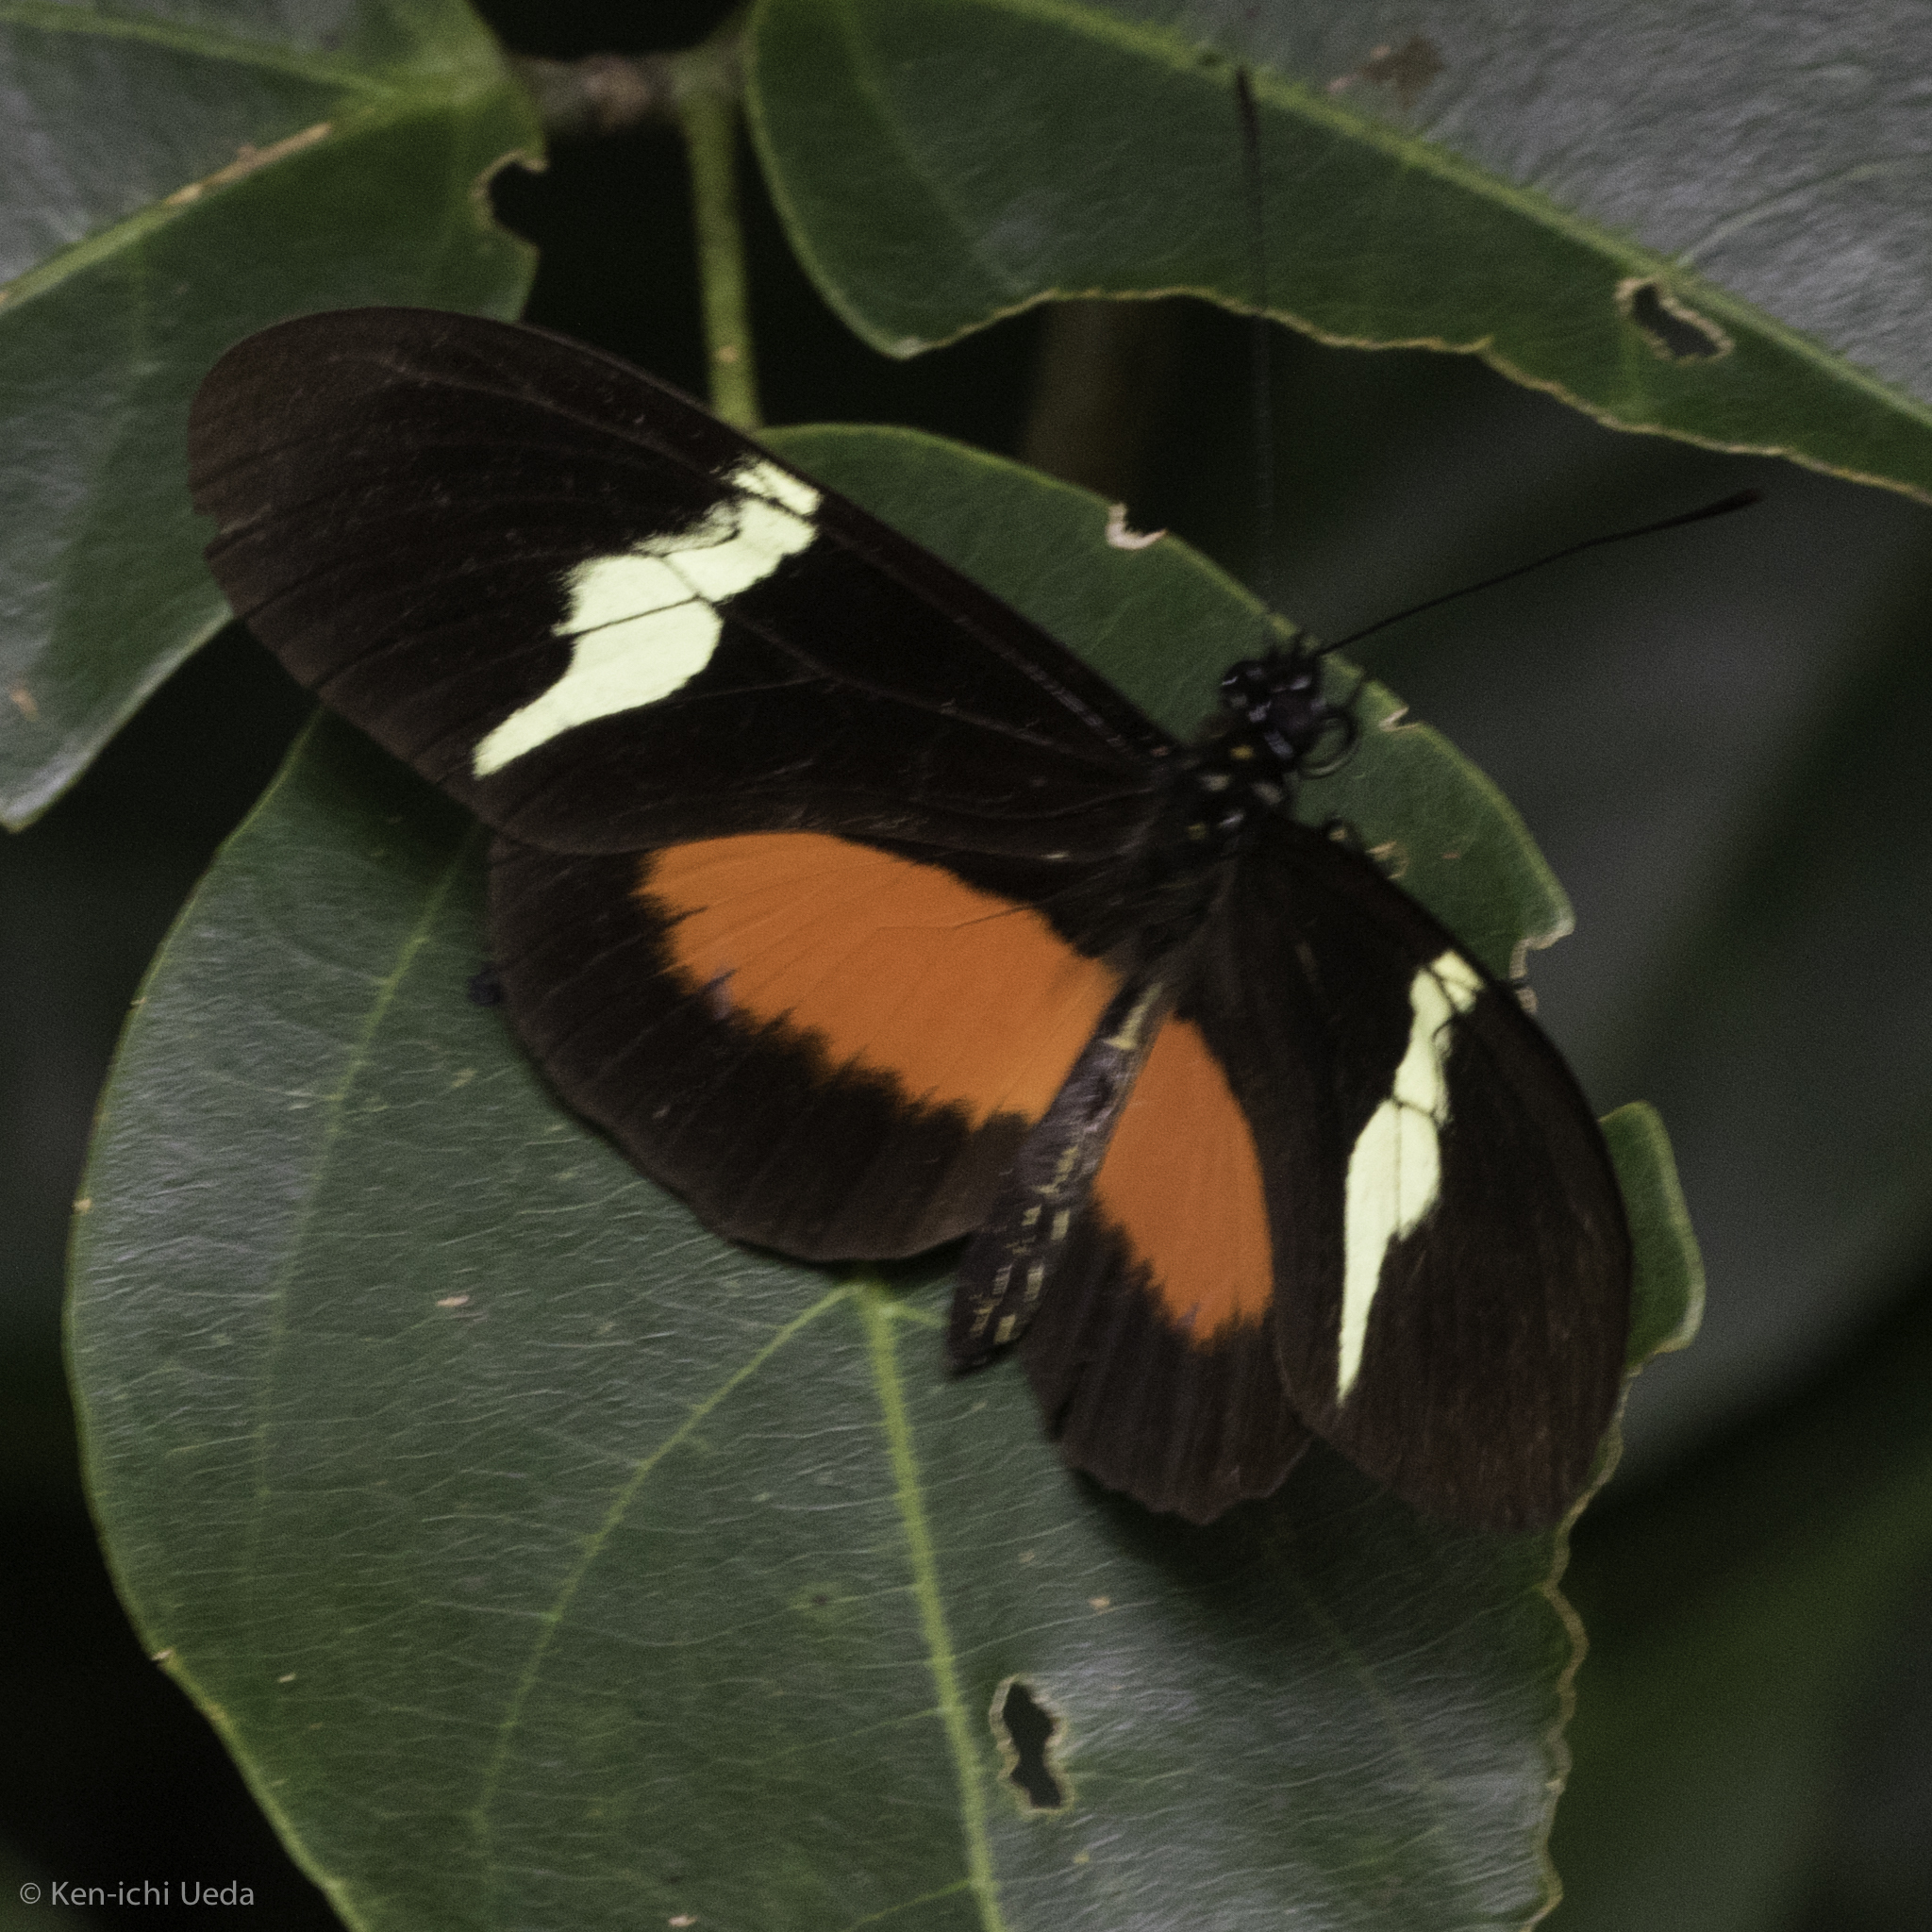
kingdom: Animalia
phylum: Arthropoda
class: Insecta
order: Lepidoptera
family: Nymphalidae
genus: Heliconius
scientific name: Heliconius clysonymus
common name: Clysonymus longwing
